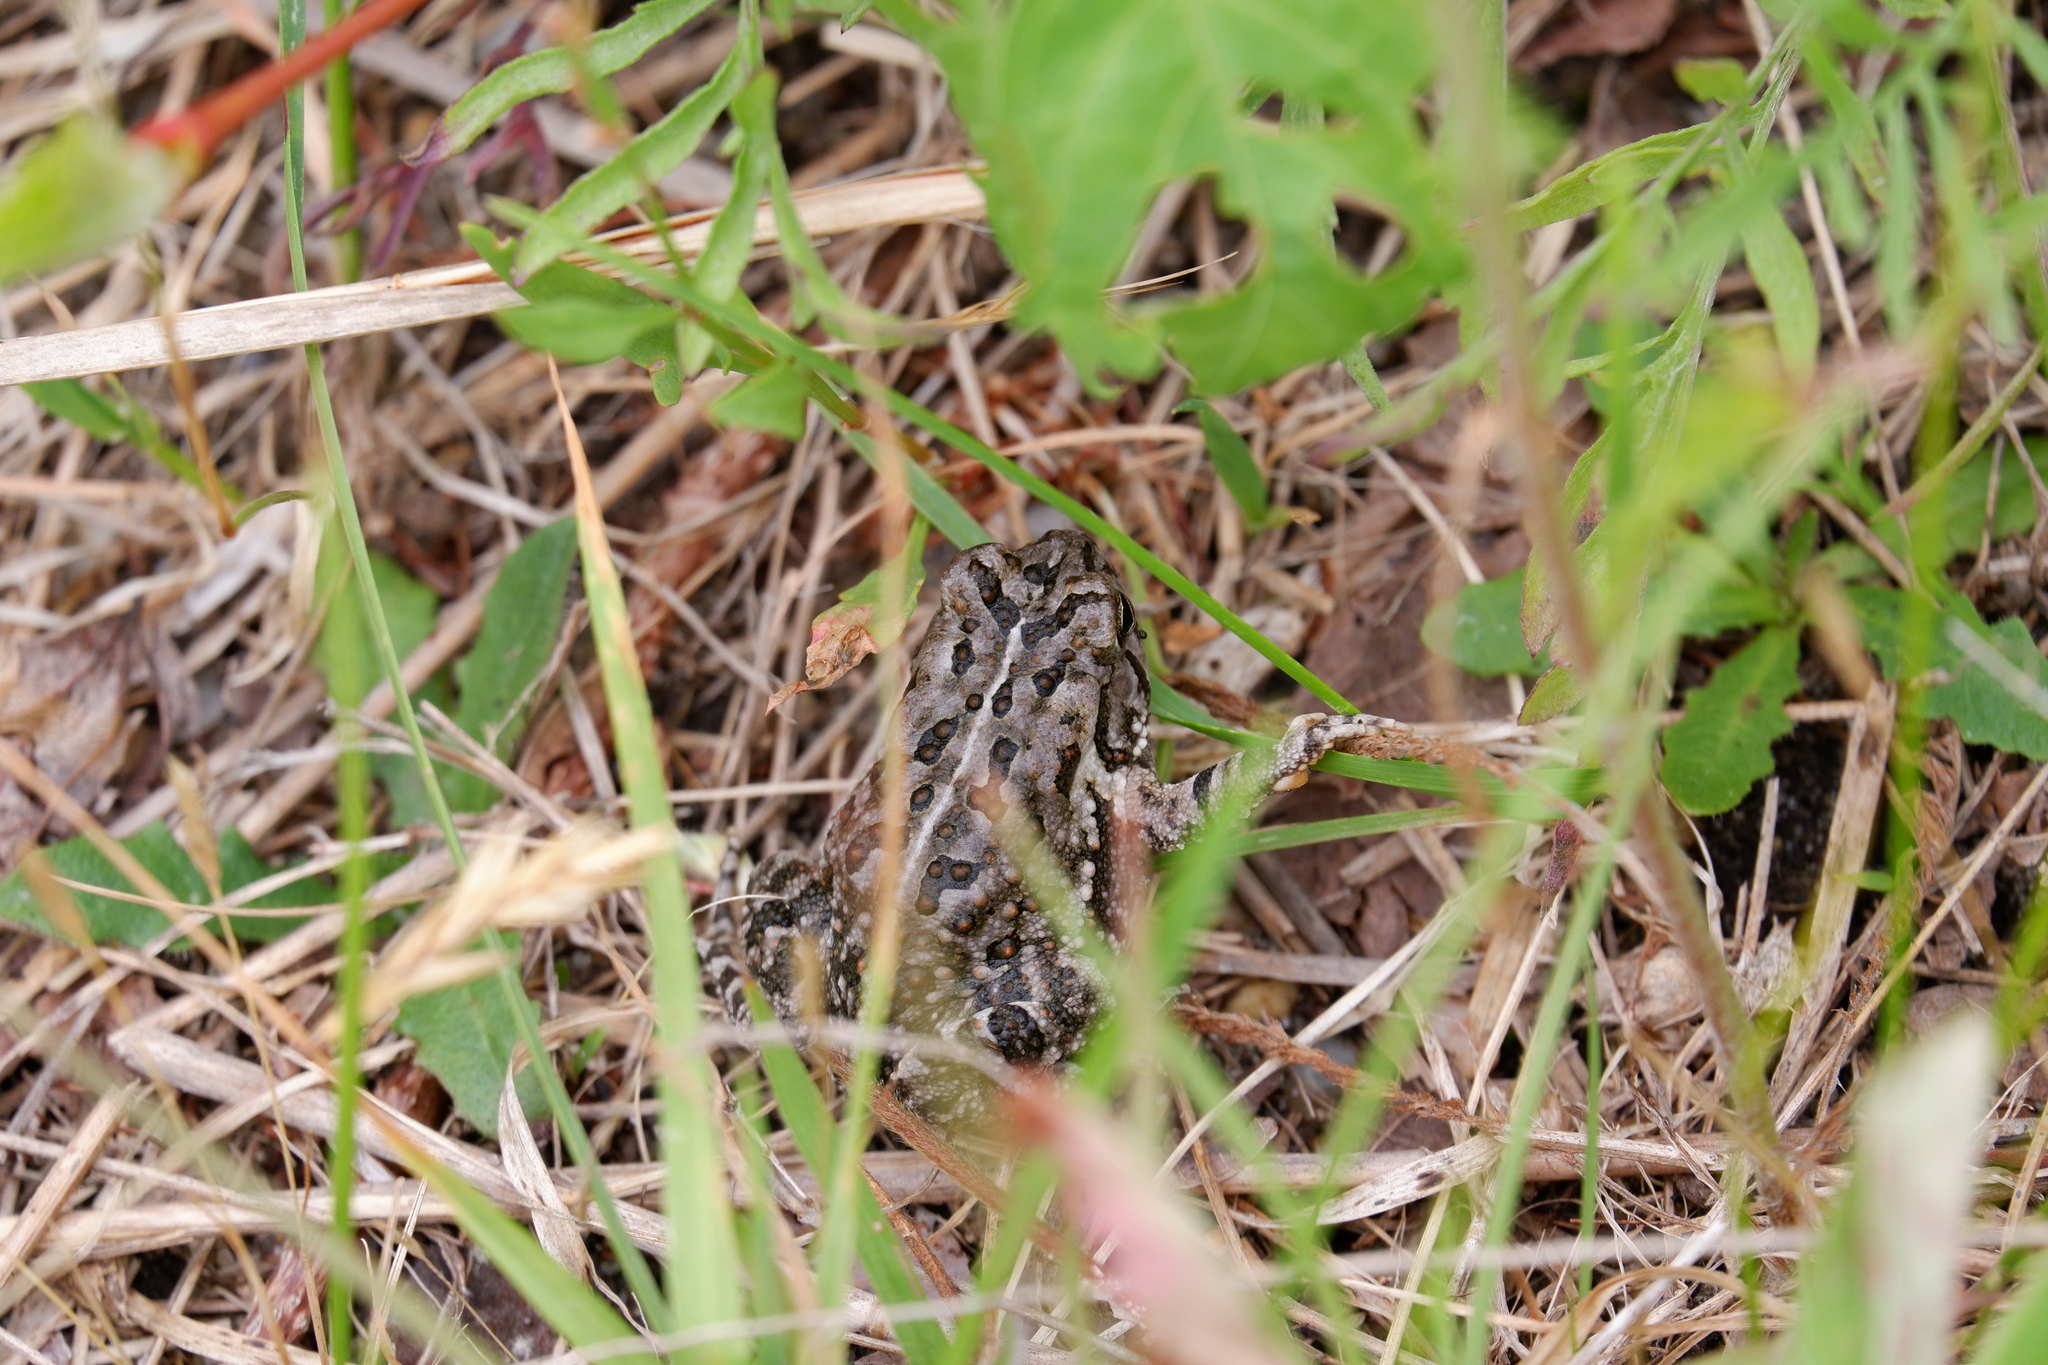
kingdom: Animalia
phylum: Chordata
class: Amphibia
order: Anura
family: Bufonidae
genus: Anaxyrus
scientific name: Anaxyrus fowleri
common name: Fowler's toad
